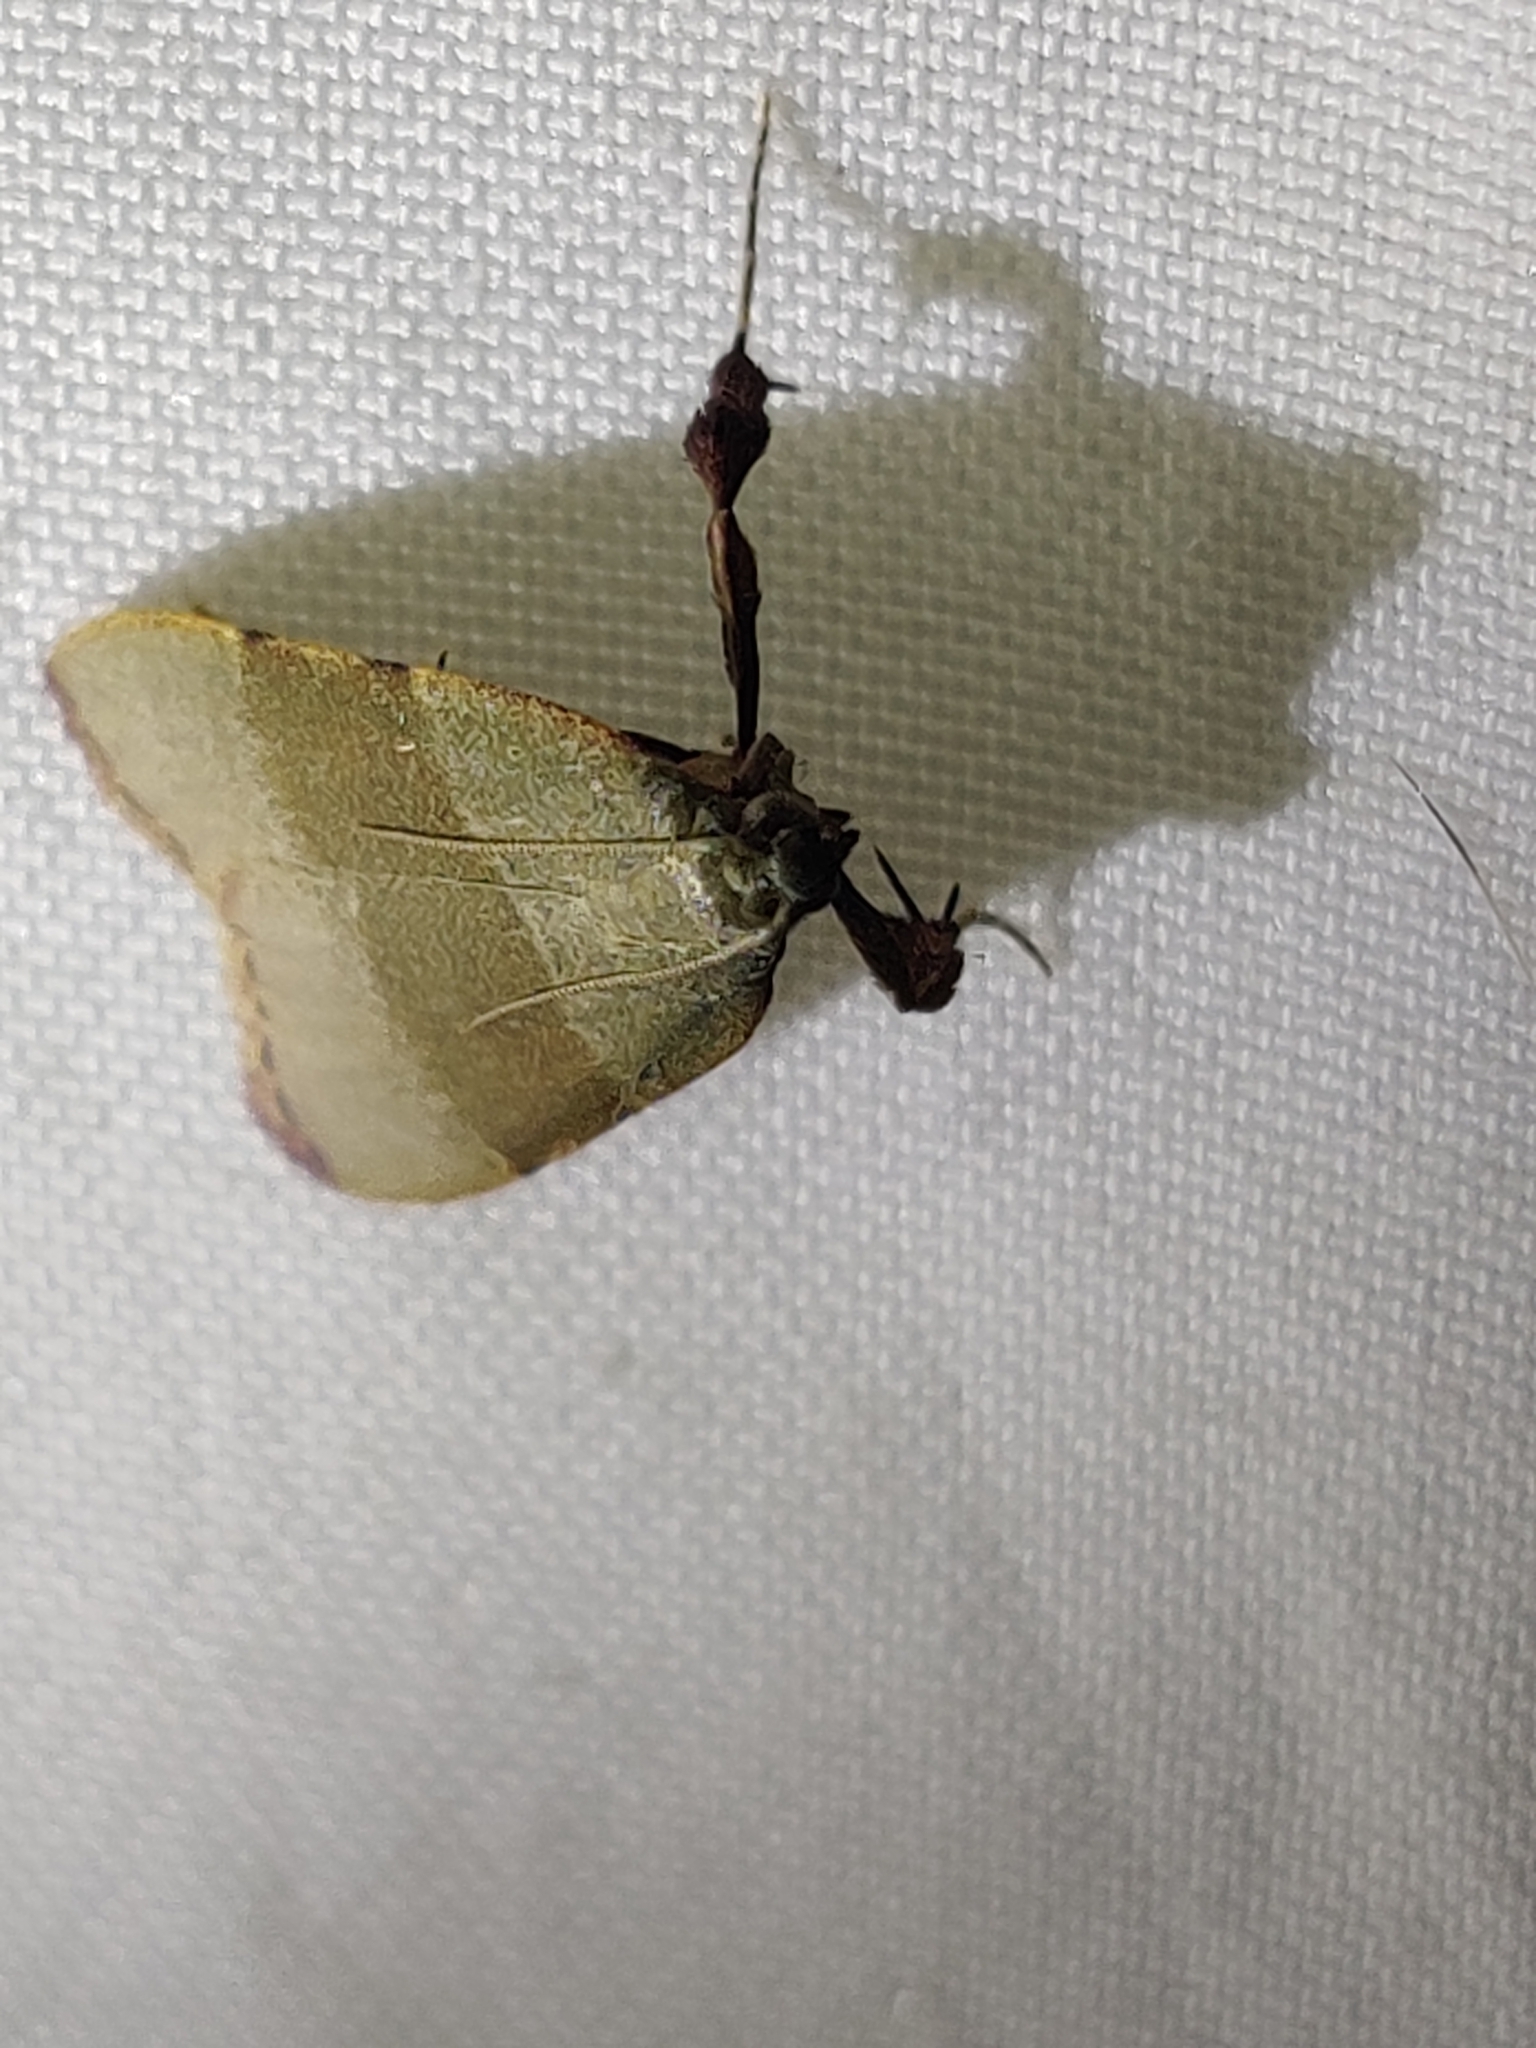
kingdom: Animalia
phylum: Arthropoda
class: Insecta
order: Lepidoptera
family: Pyralidae
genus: Basacallis
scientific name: Basacallis tarachodes
